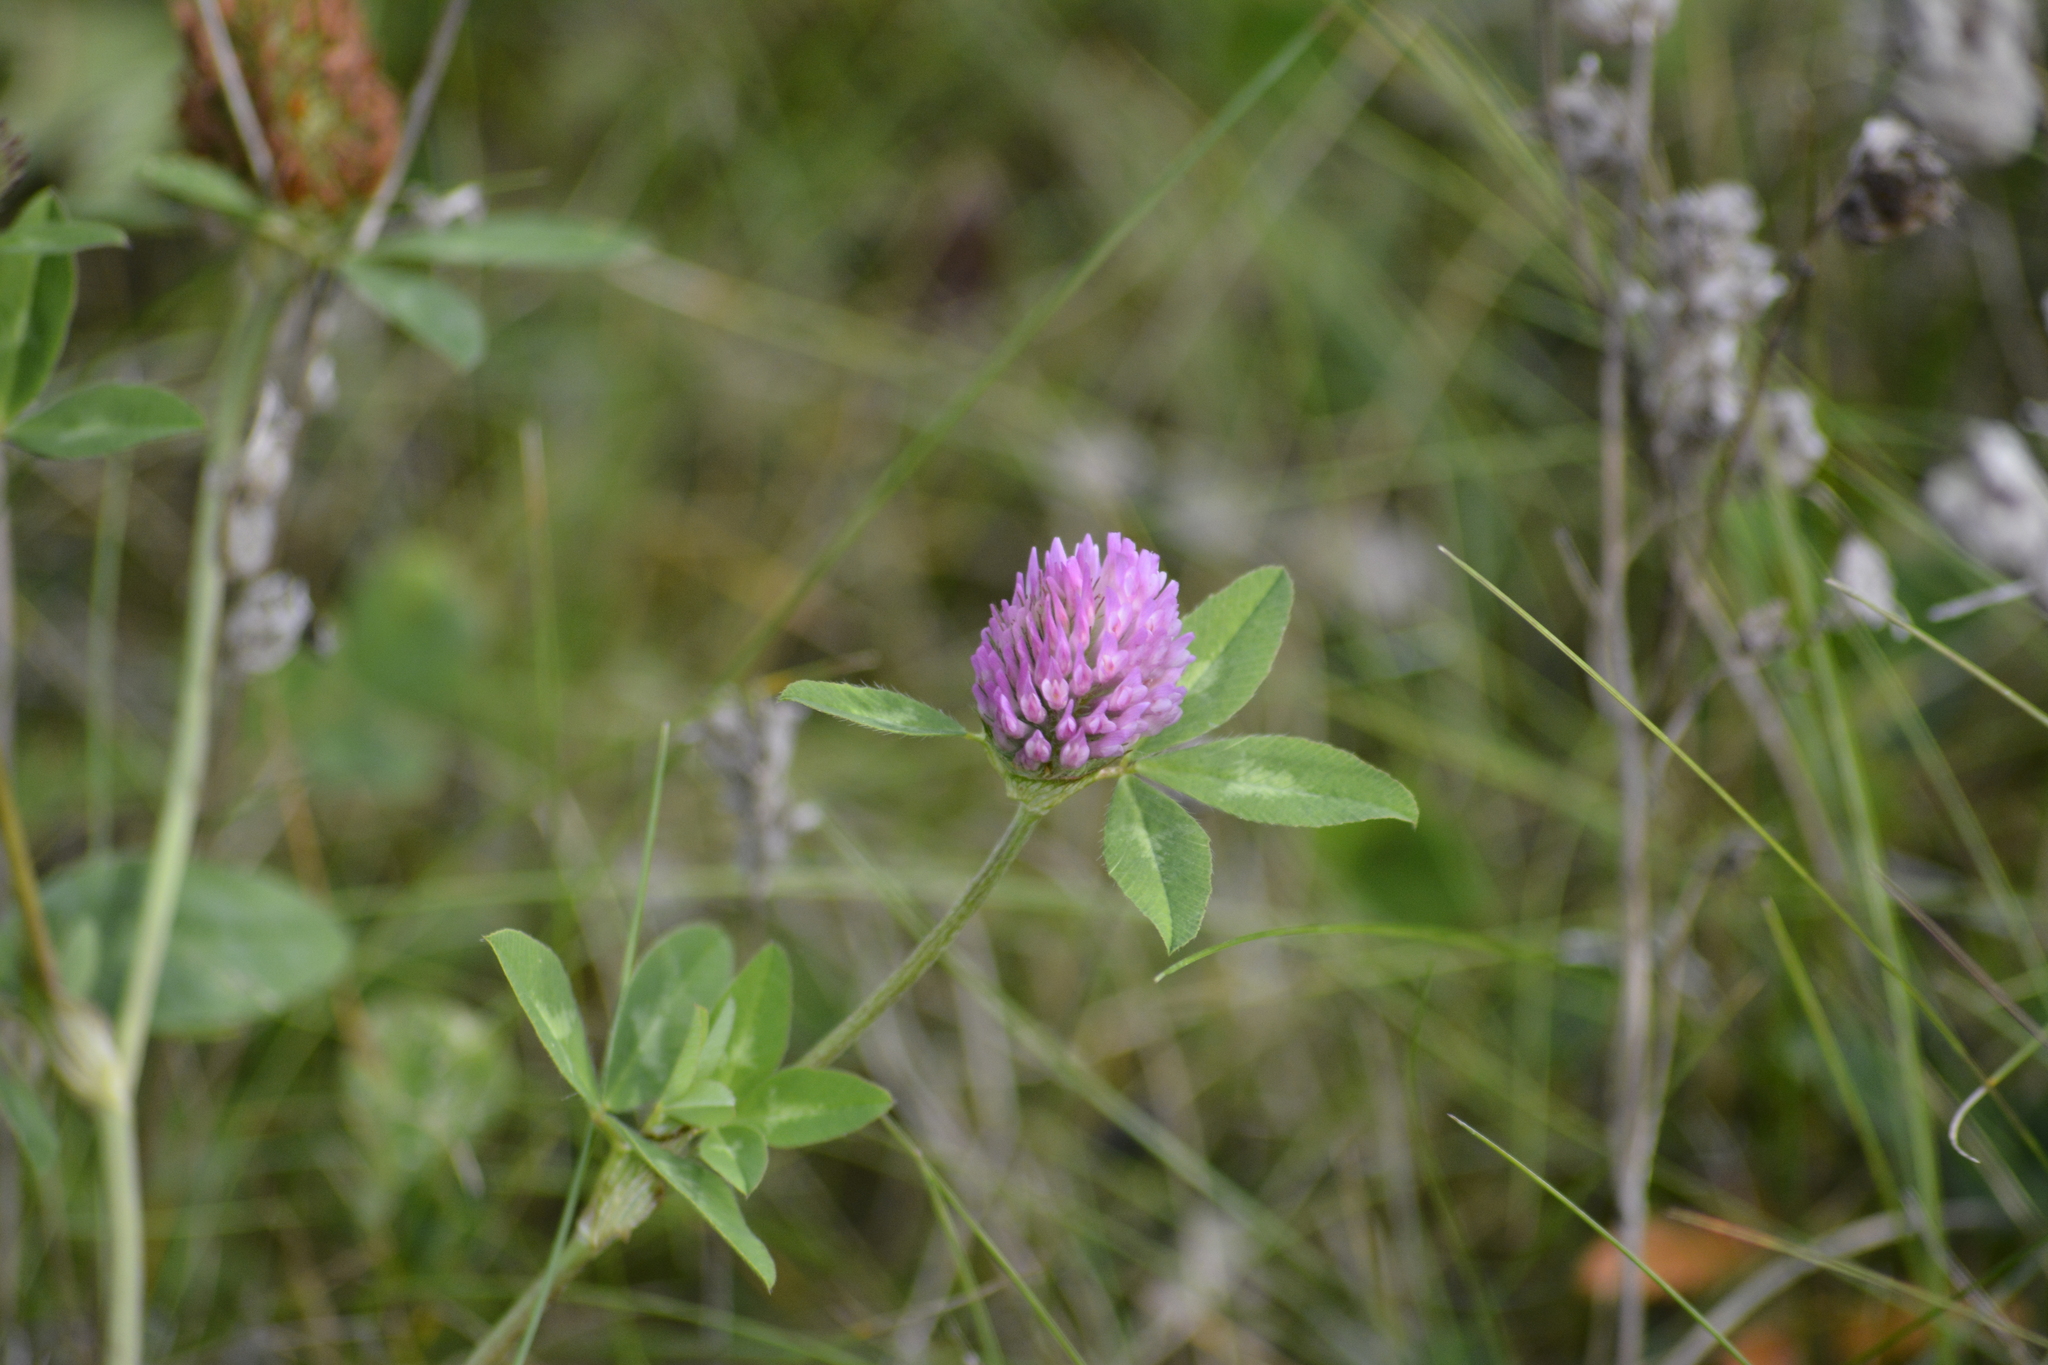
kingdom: Plantae
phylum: Tracheophyta
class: Magnoliopsida
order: Fabales
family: Fabaceae
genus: Trifolium
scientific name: Trifolium pratense
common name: Red clover
